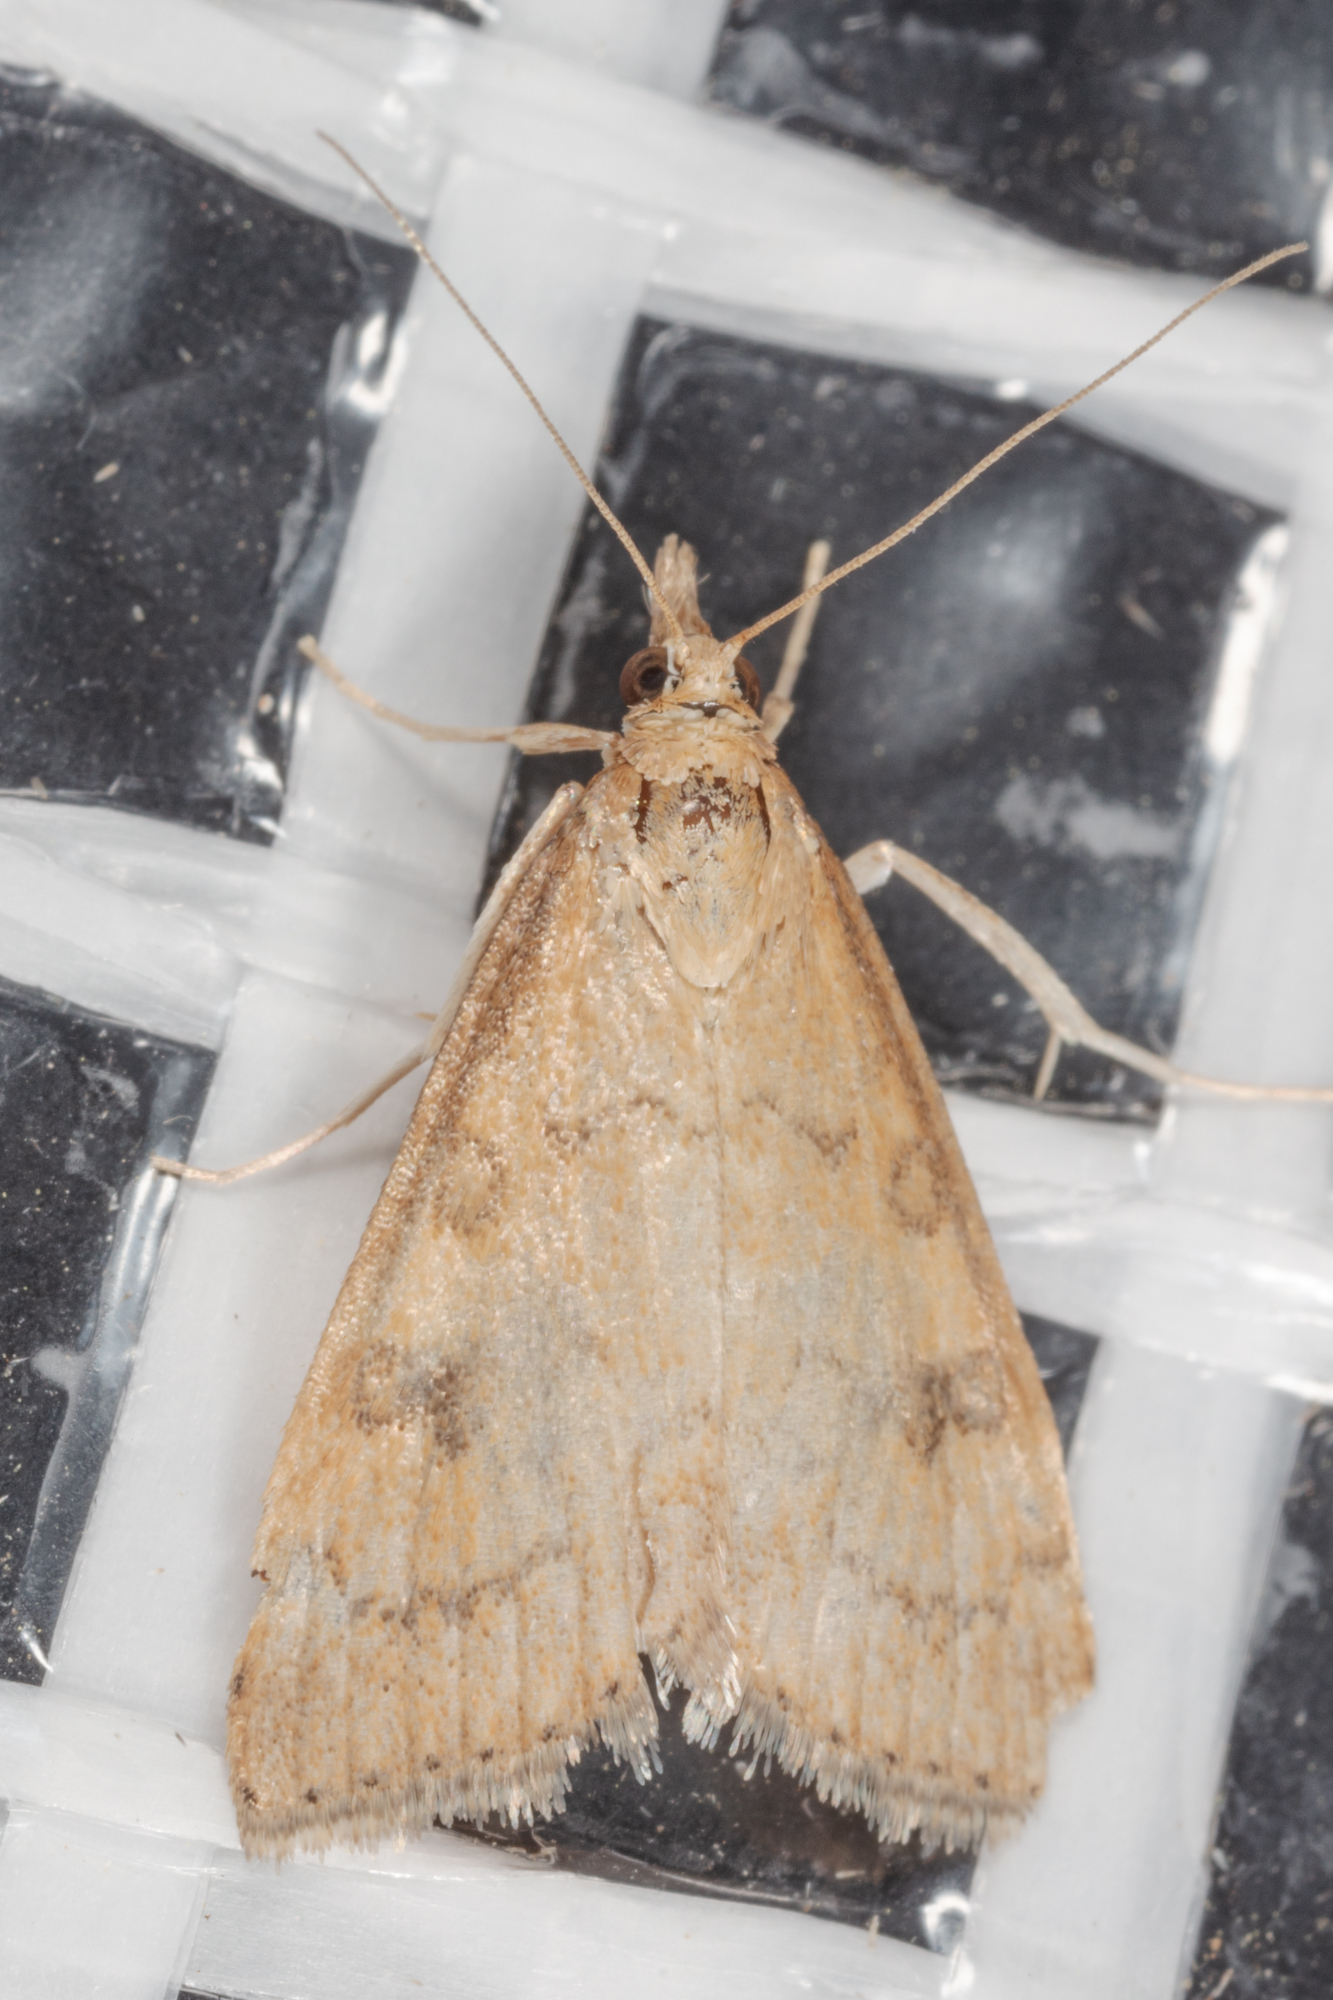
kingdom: Animalia
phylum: Arthropoda
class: Insecta
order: Lepidoptera
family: Crambidae
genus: Udea
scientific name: Udea rubigalis
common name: Celery leaftier moth
